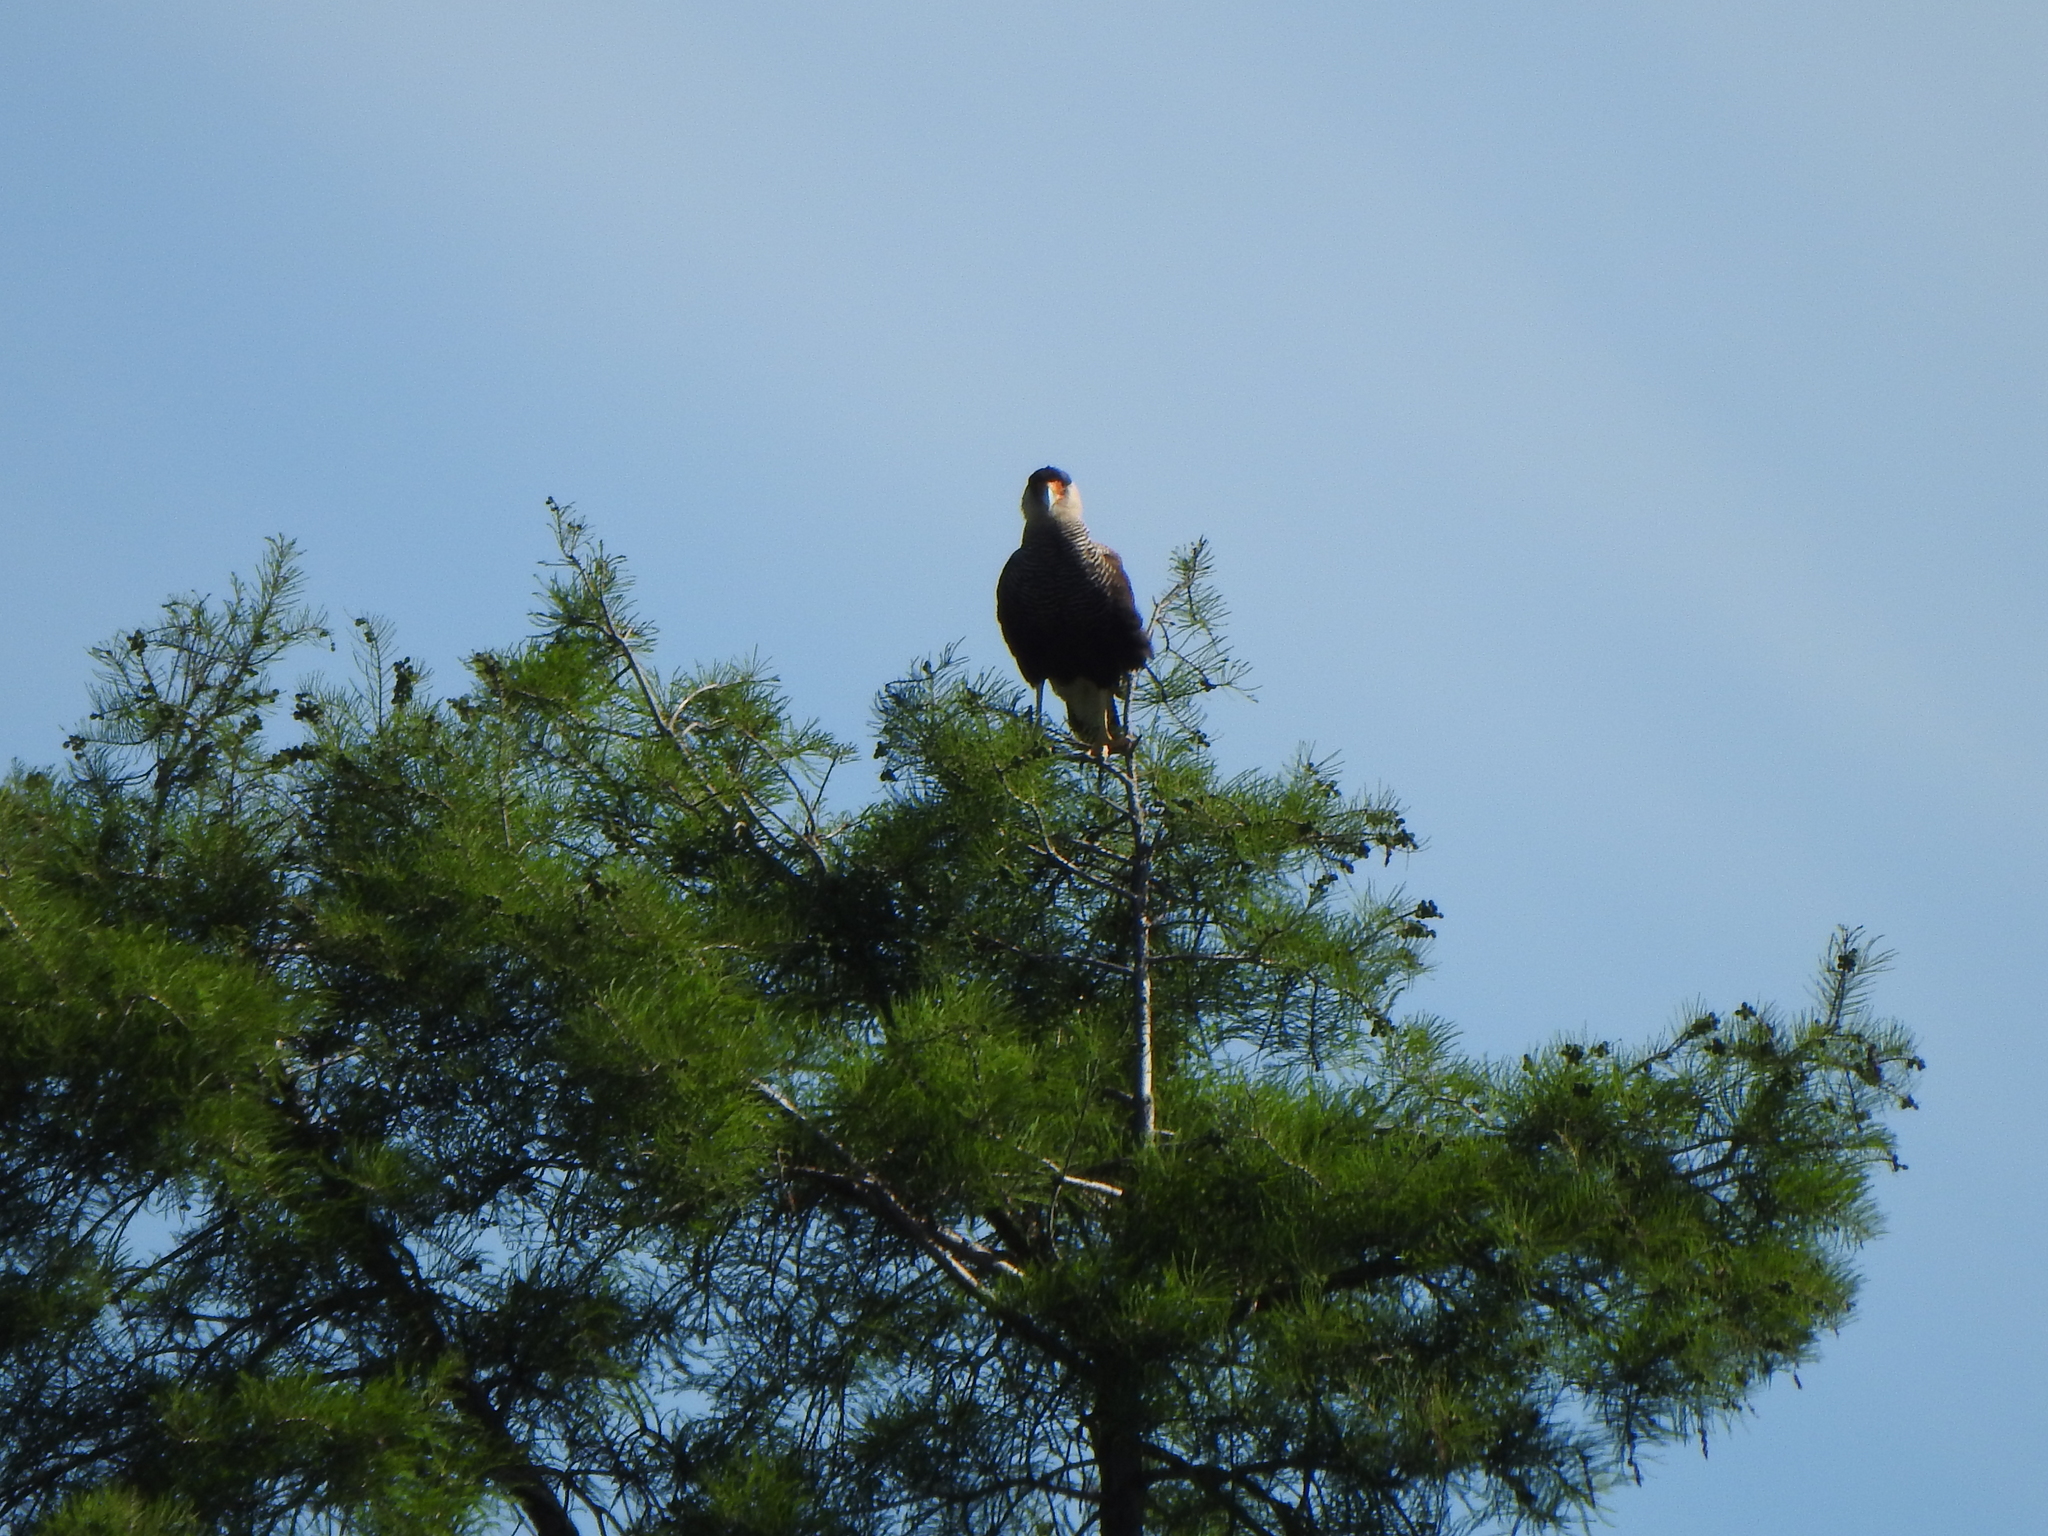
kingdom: Animalia
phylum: Chordata
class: Aves
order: Falconiformes
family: Falconidae
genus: Caracara
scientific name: Caracara plancus
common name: Southern caracara
